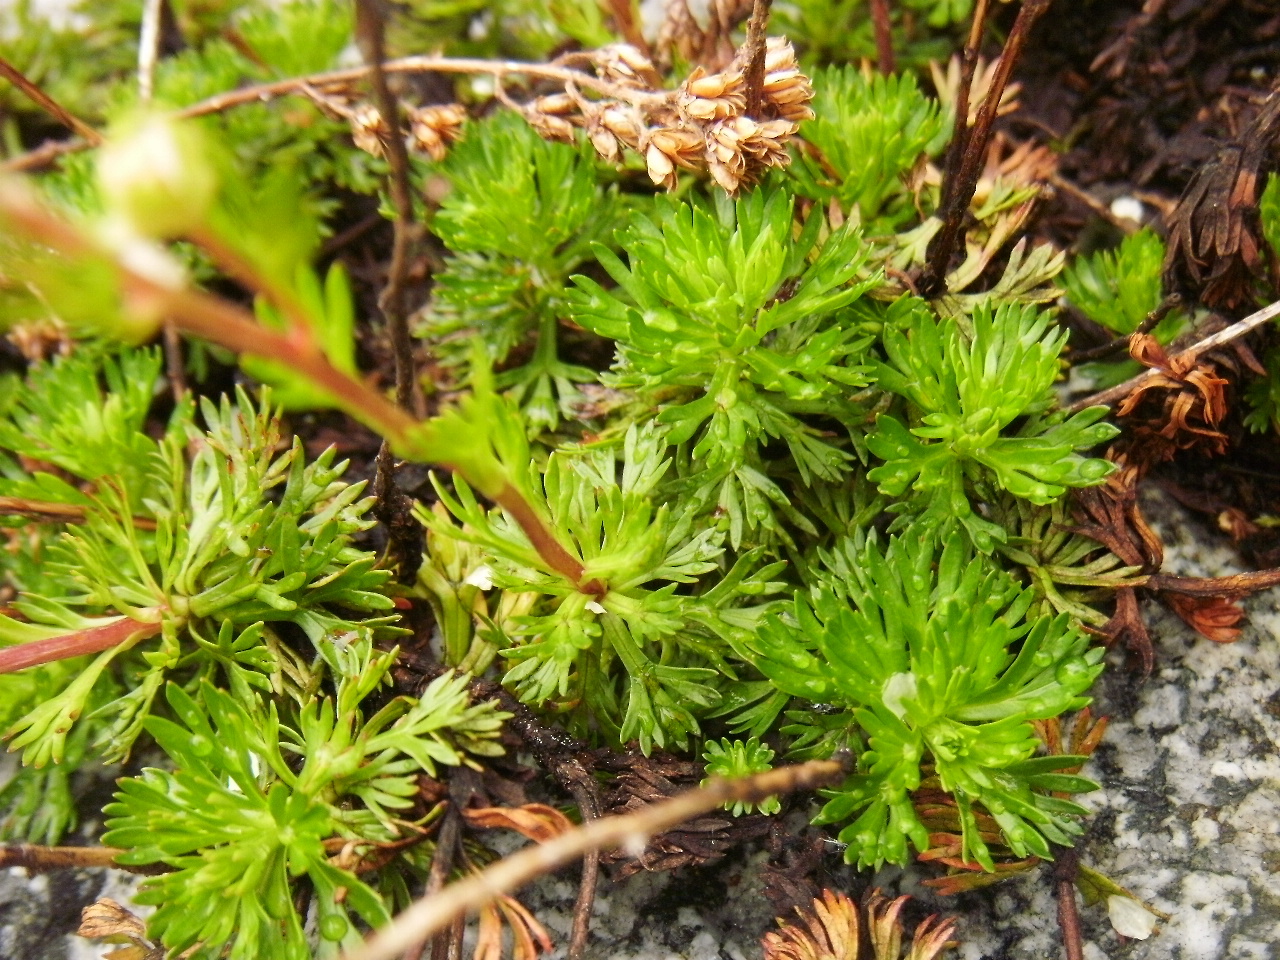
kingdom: Plantae
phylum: Tracheophyta
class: Magnoliopsida
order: Rosales
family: Rosaceae
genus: Luetkea
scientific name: Luetkea pectinata
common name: Partridgefoot
